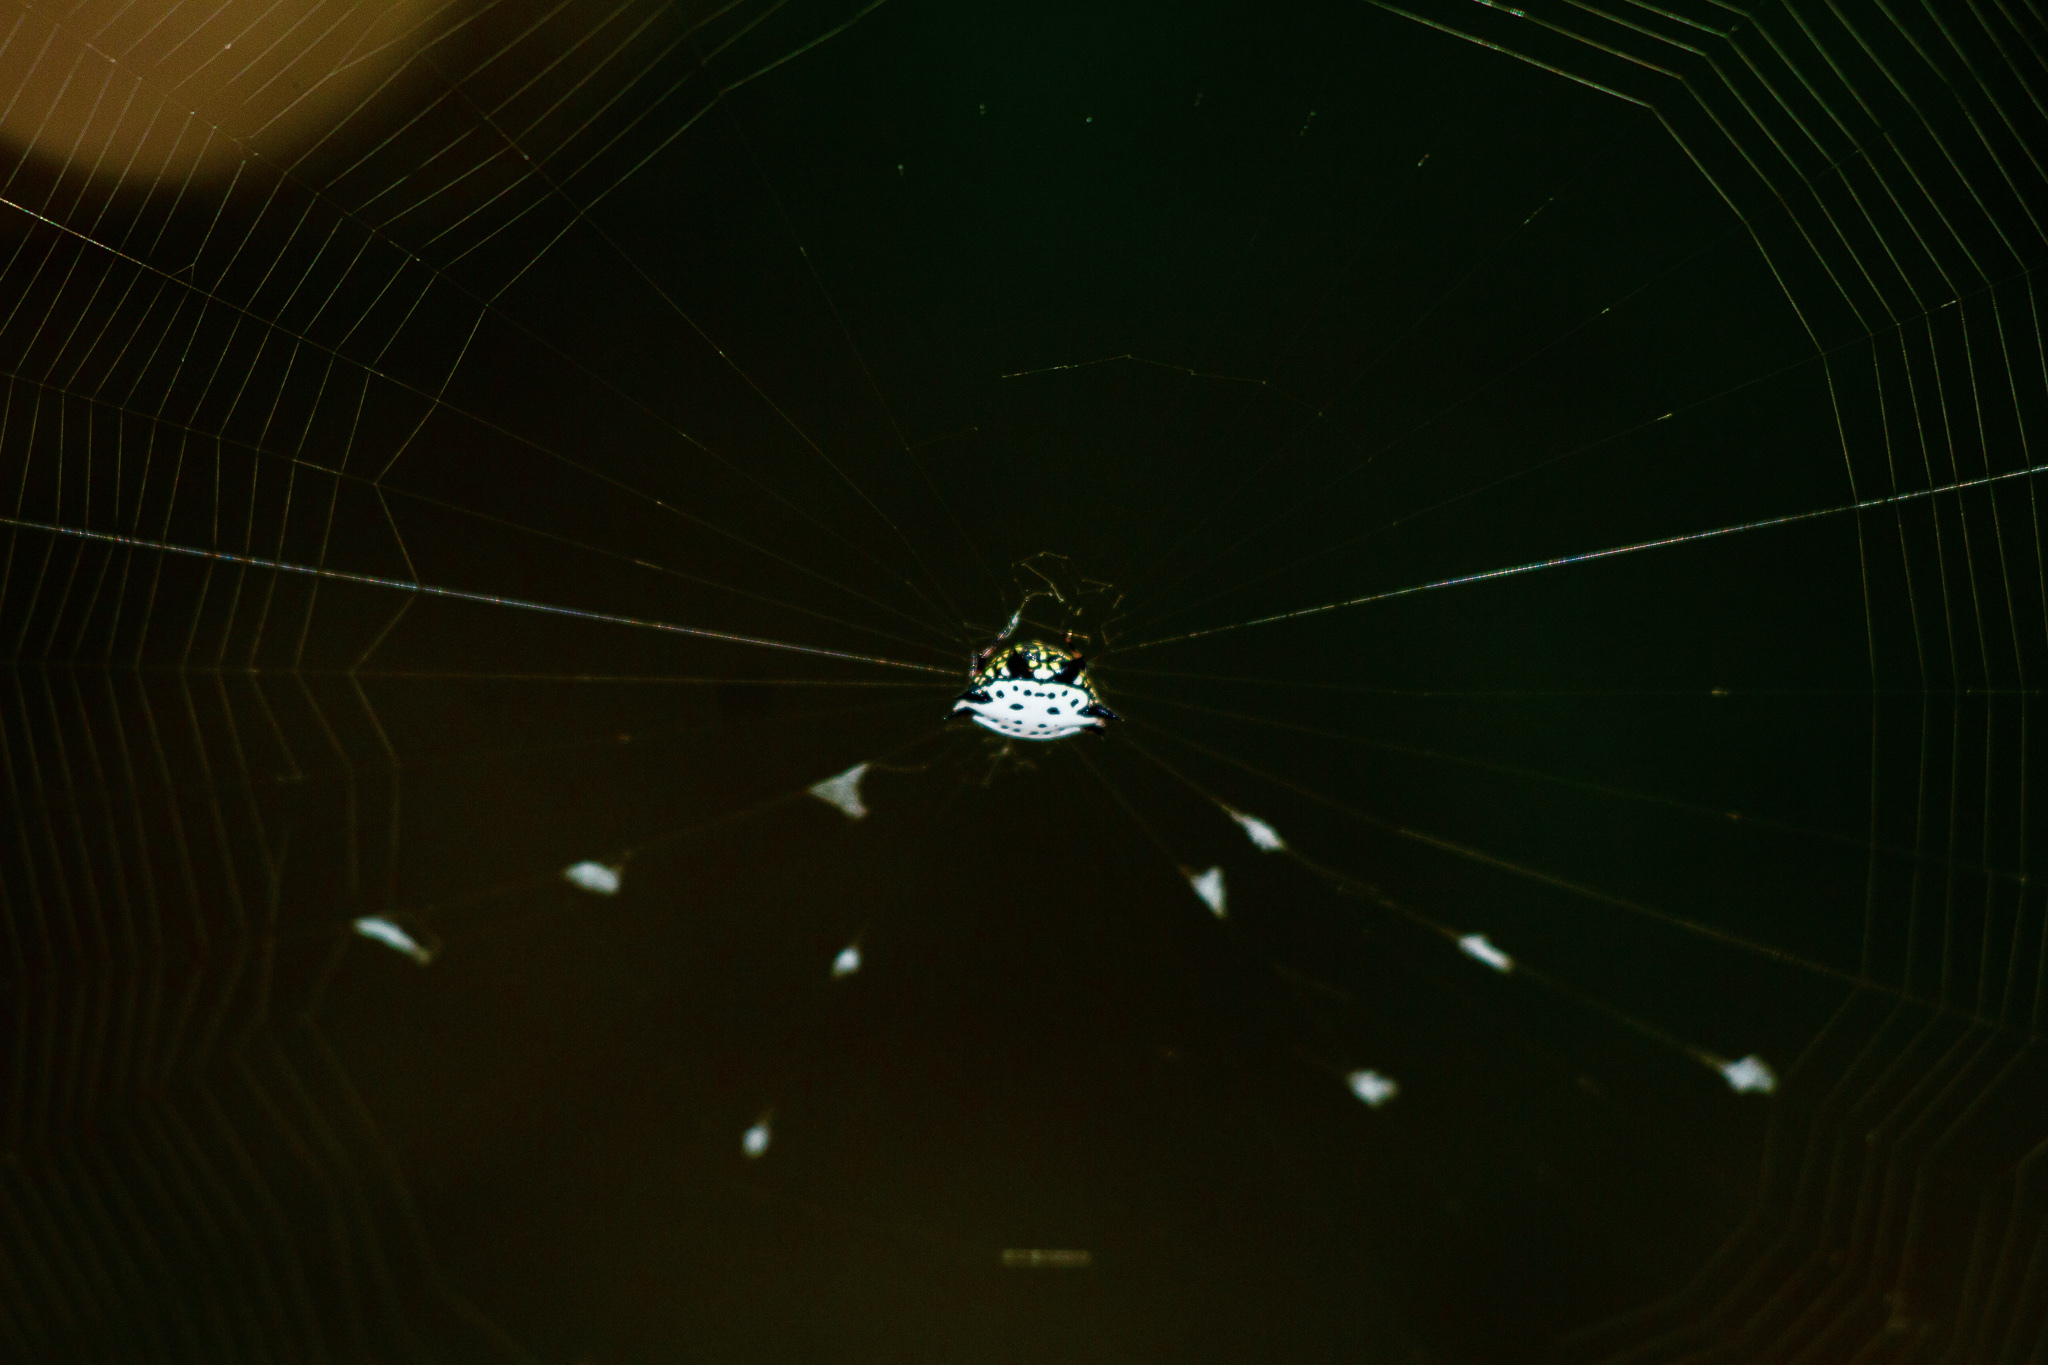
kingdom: Animalia
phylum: Arthropoda
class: Arachnida
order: Araneae
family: Araneidae
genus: Gasteracantha
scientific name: Gasteracantha cancriformis
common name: Orb weavers
